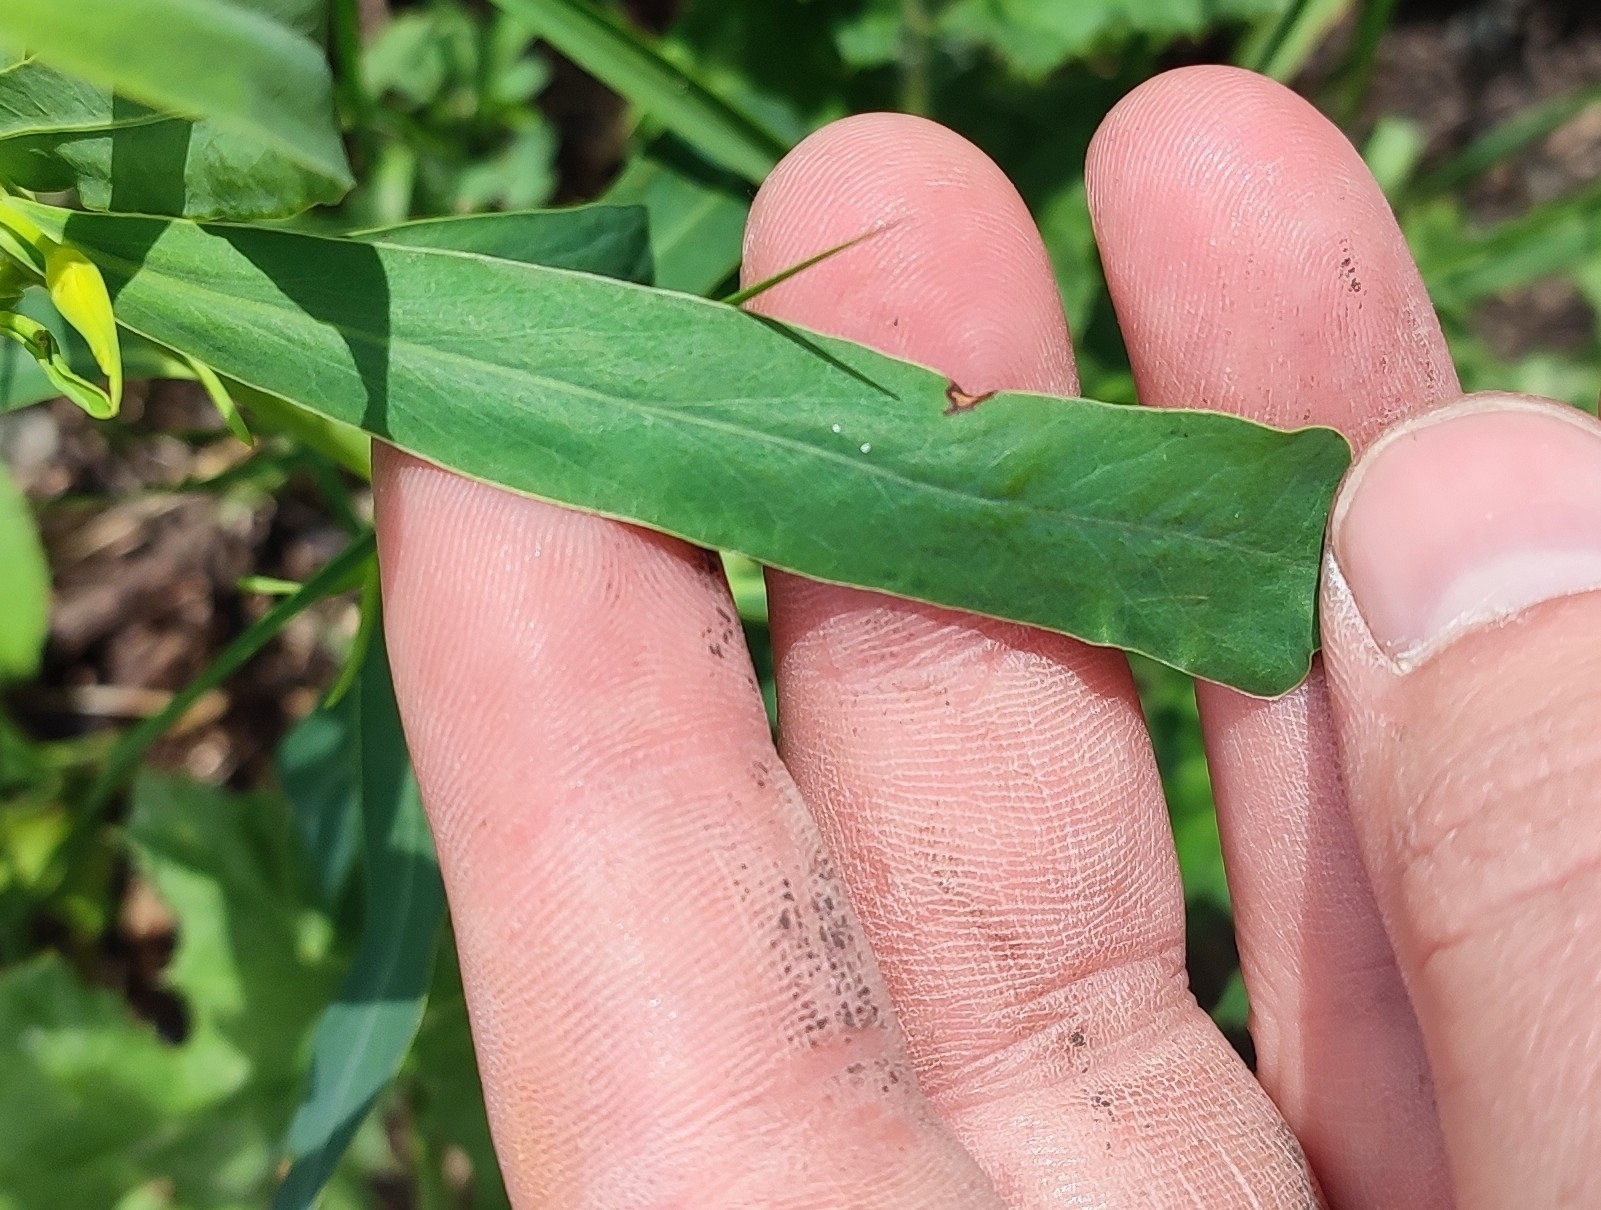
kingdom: Plantae
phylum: Tracheophyta
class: Magnoliopsida
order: Malpighiales
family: Euphorbiaceae
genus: Euphorbia
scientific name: Euphorbia virgata
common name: Leafy spurge
